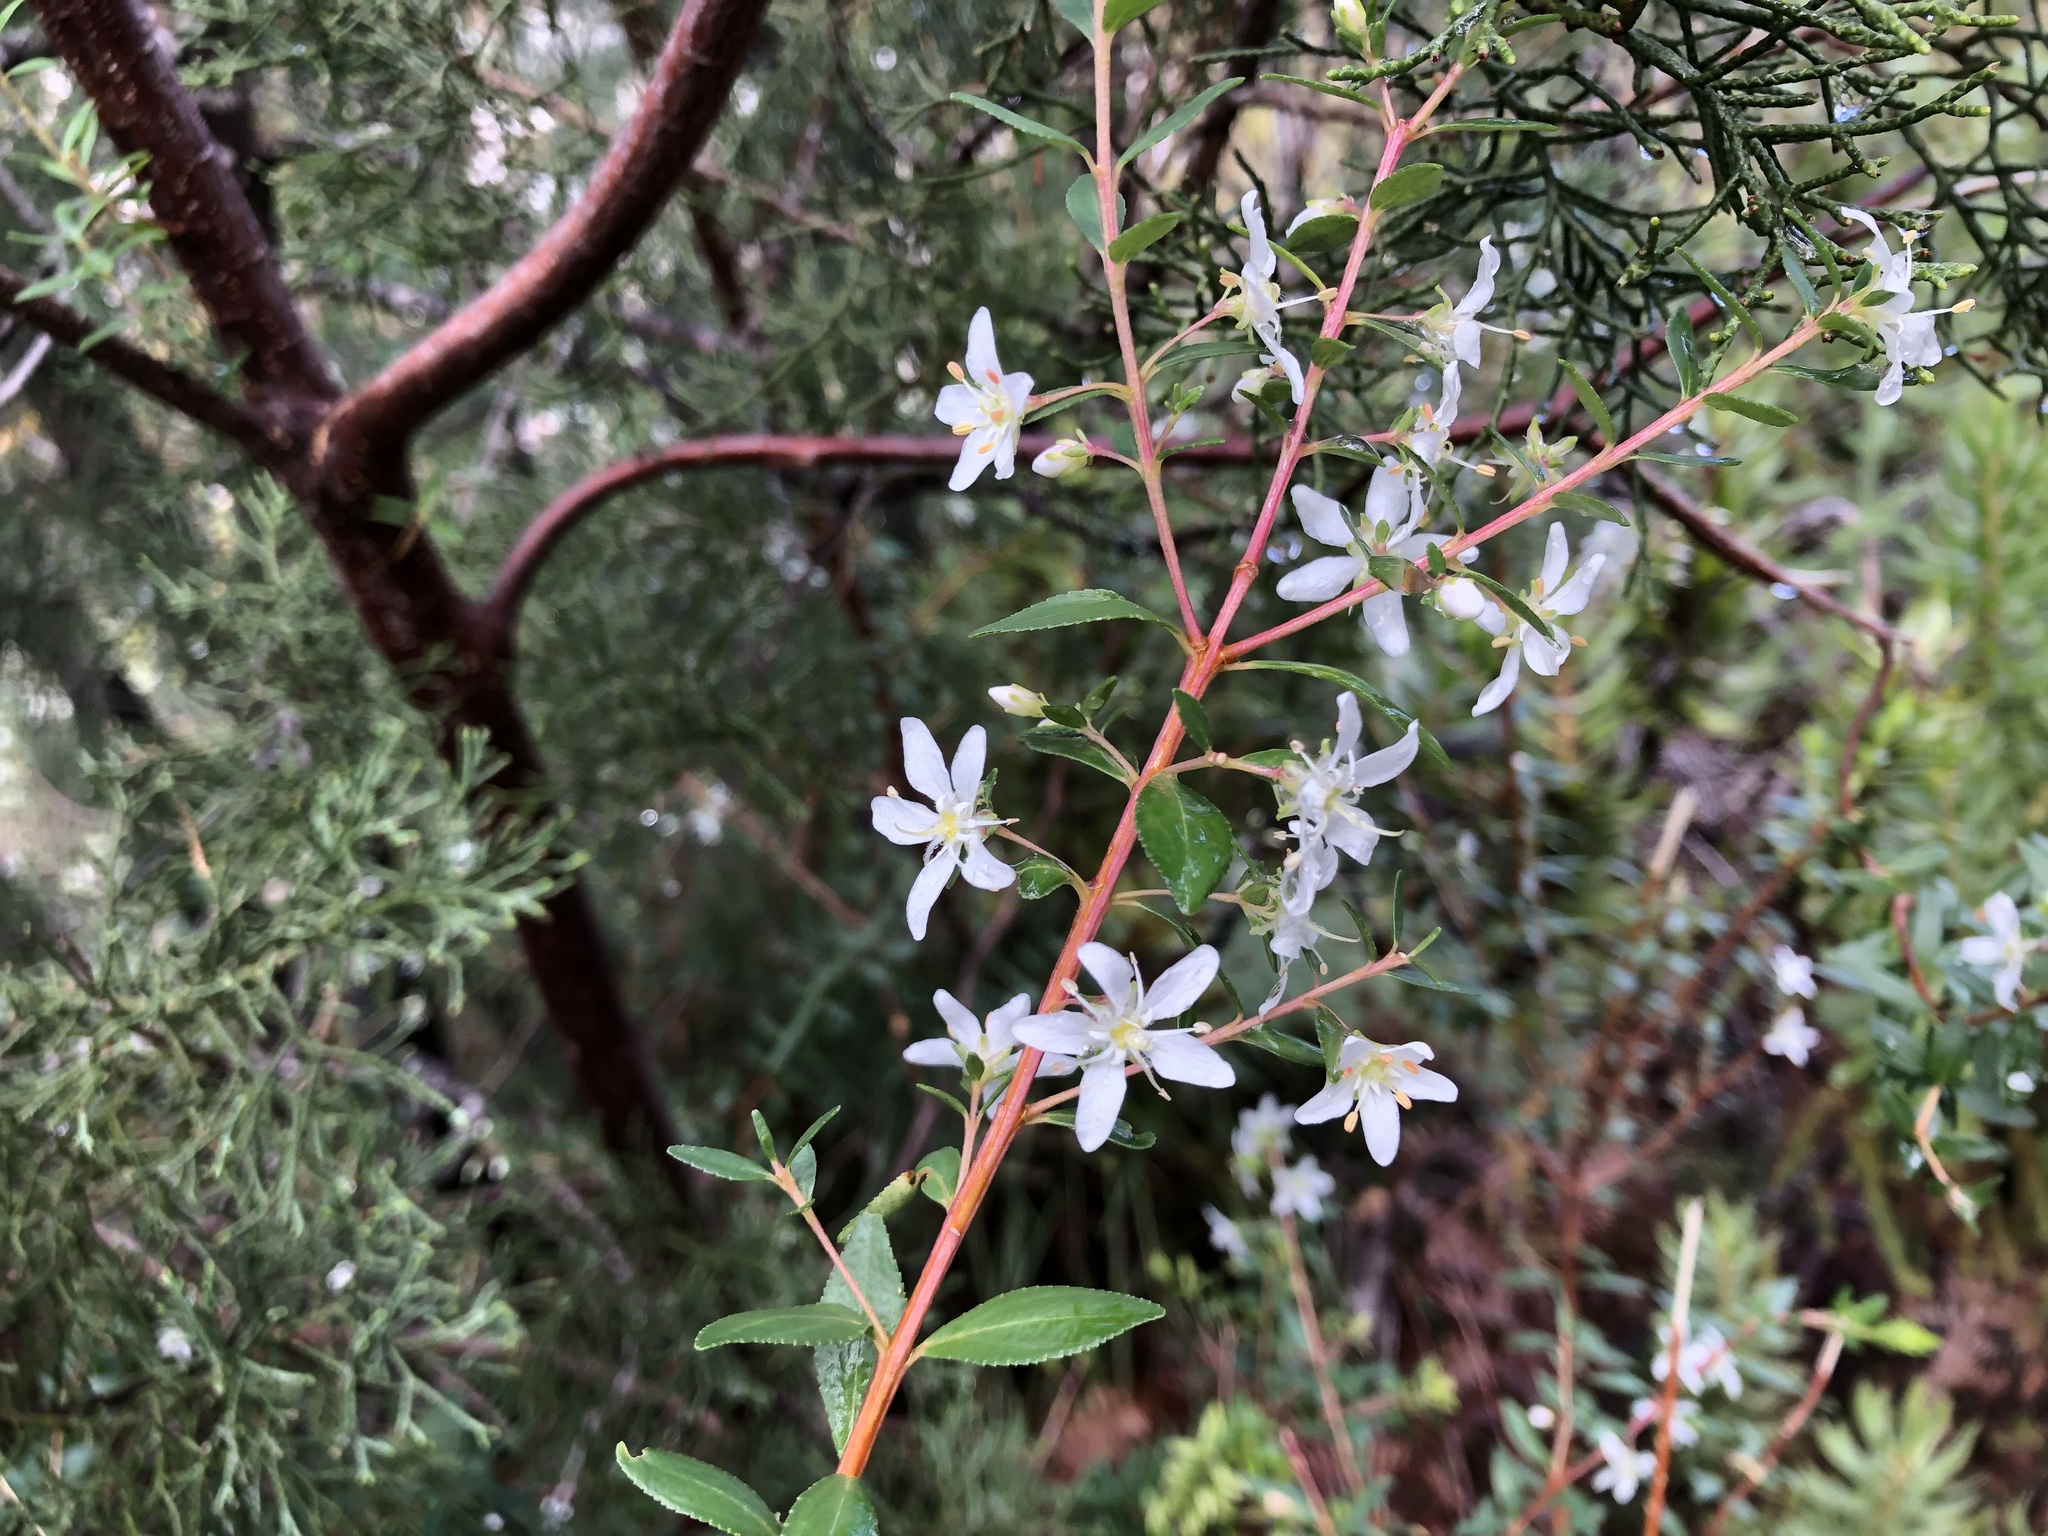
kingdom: Plantae
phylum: Tracheophyta
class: Magnoliopsida
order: Sapindales
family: Rutaceae
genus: Agathosma
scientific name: Agathosma crenulata
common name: Oval buchu
